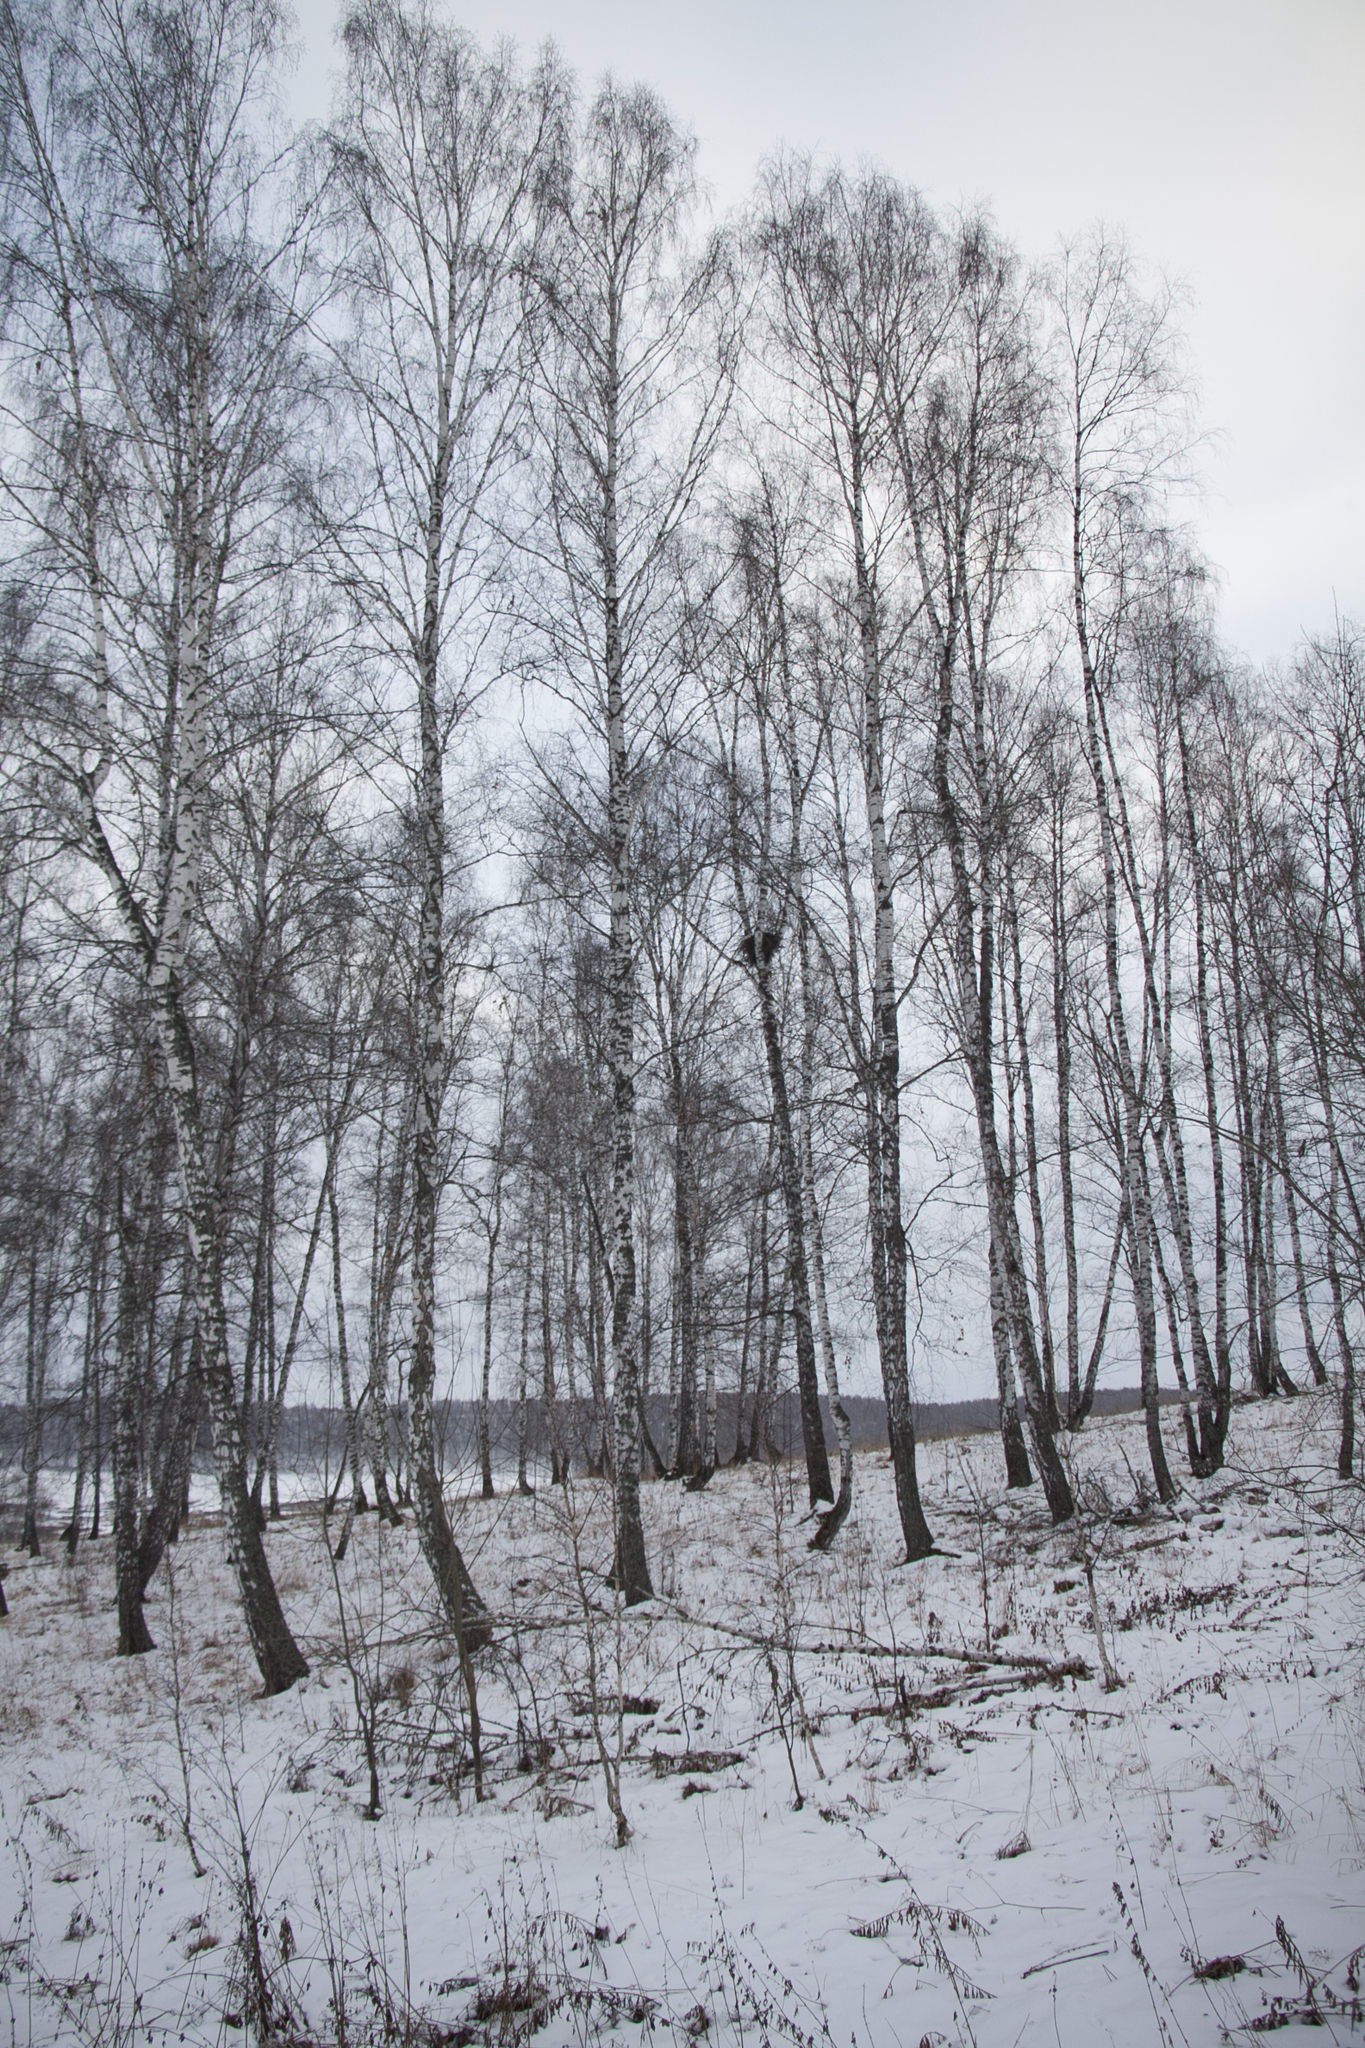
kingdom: Animalia
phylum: Chordata
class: Aves
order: Passeriformes
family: Corvidae
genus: Corvus
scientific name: Corvus corax
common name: Common raven
